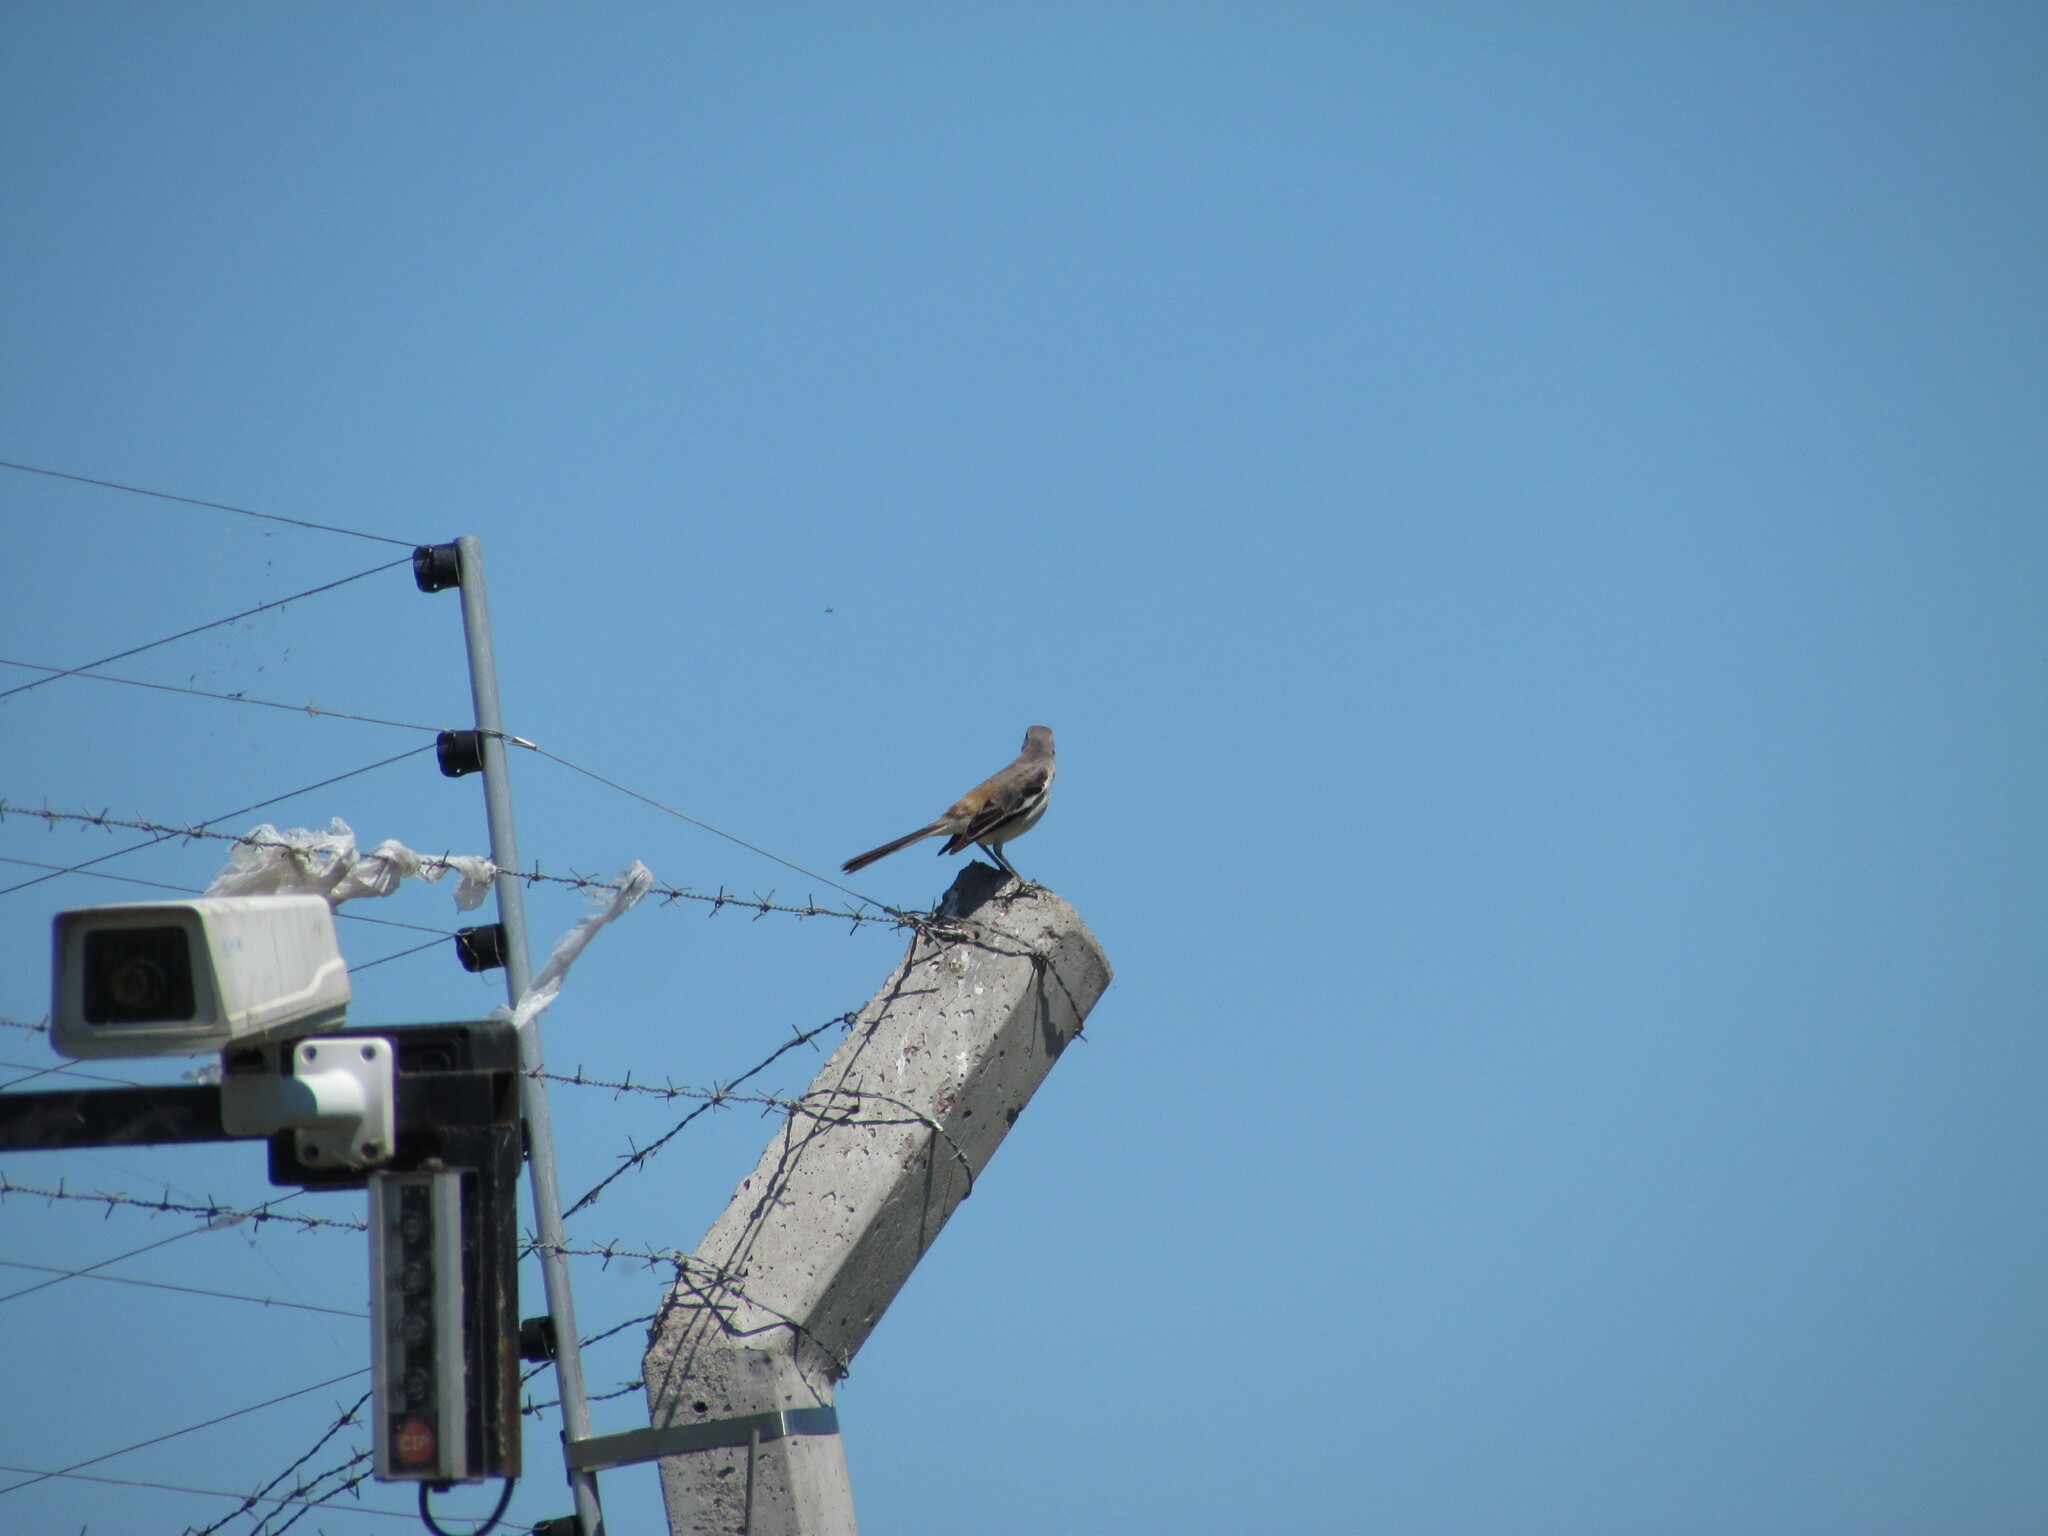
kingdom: Animalia
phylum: Chordata
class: Aves
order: Passeriformes
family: Mimidae
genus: Mimus
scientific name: Mimus triurus
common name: White-banded mockingbird
